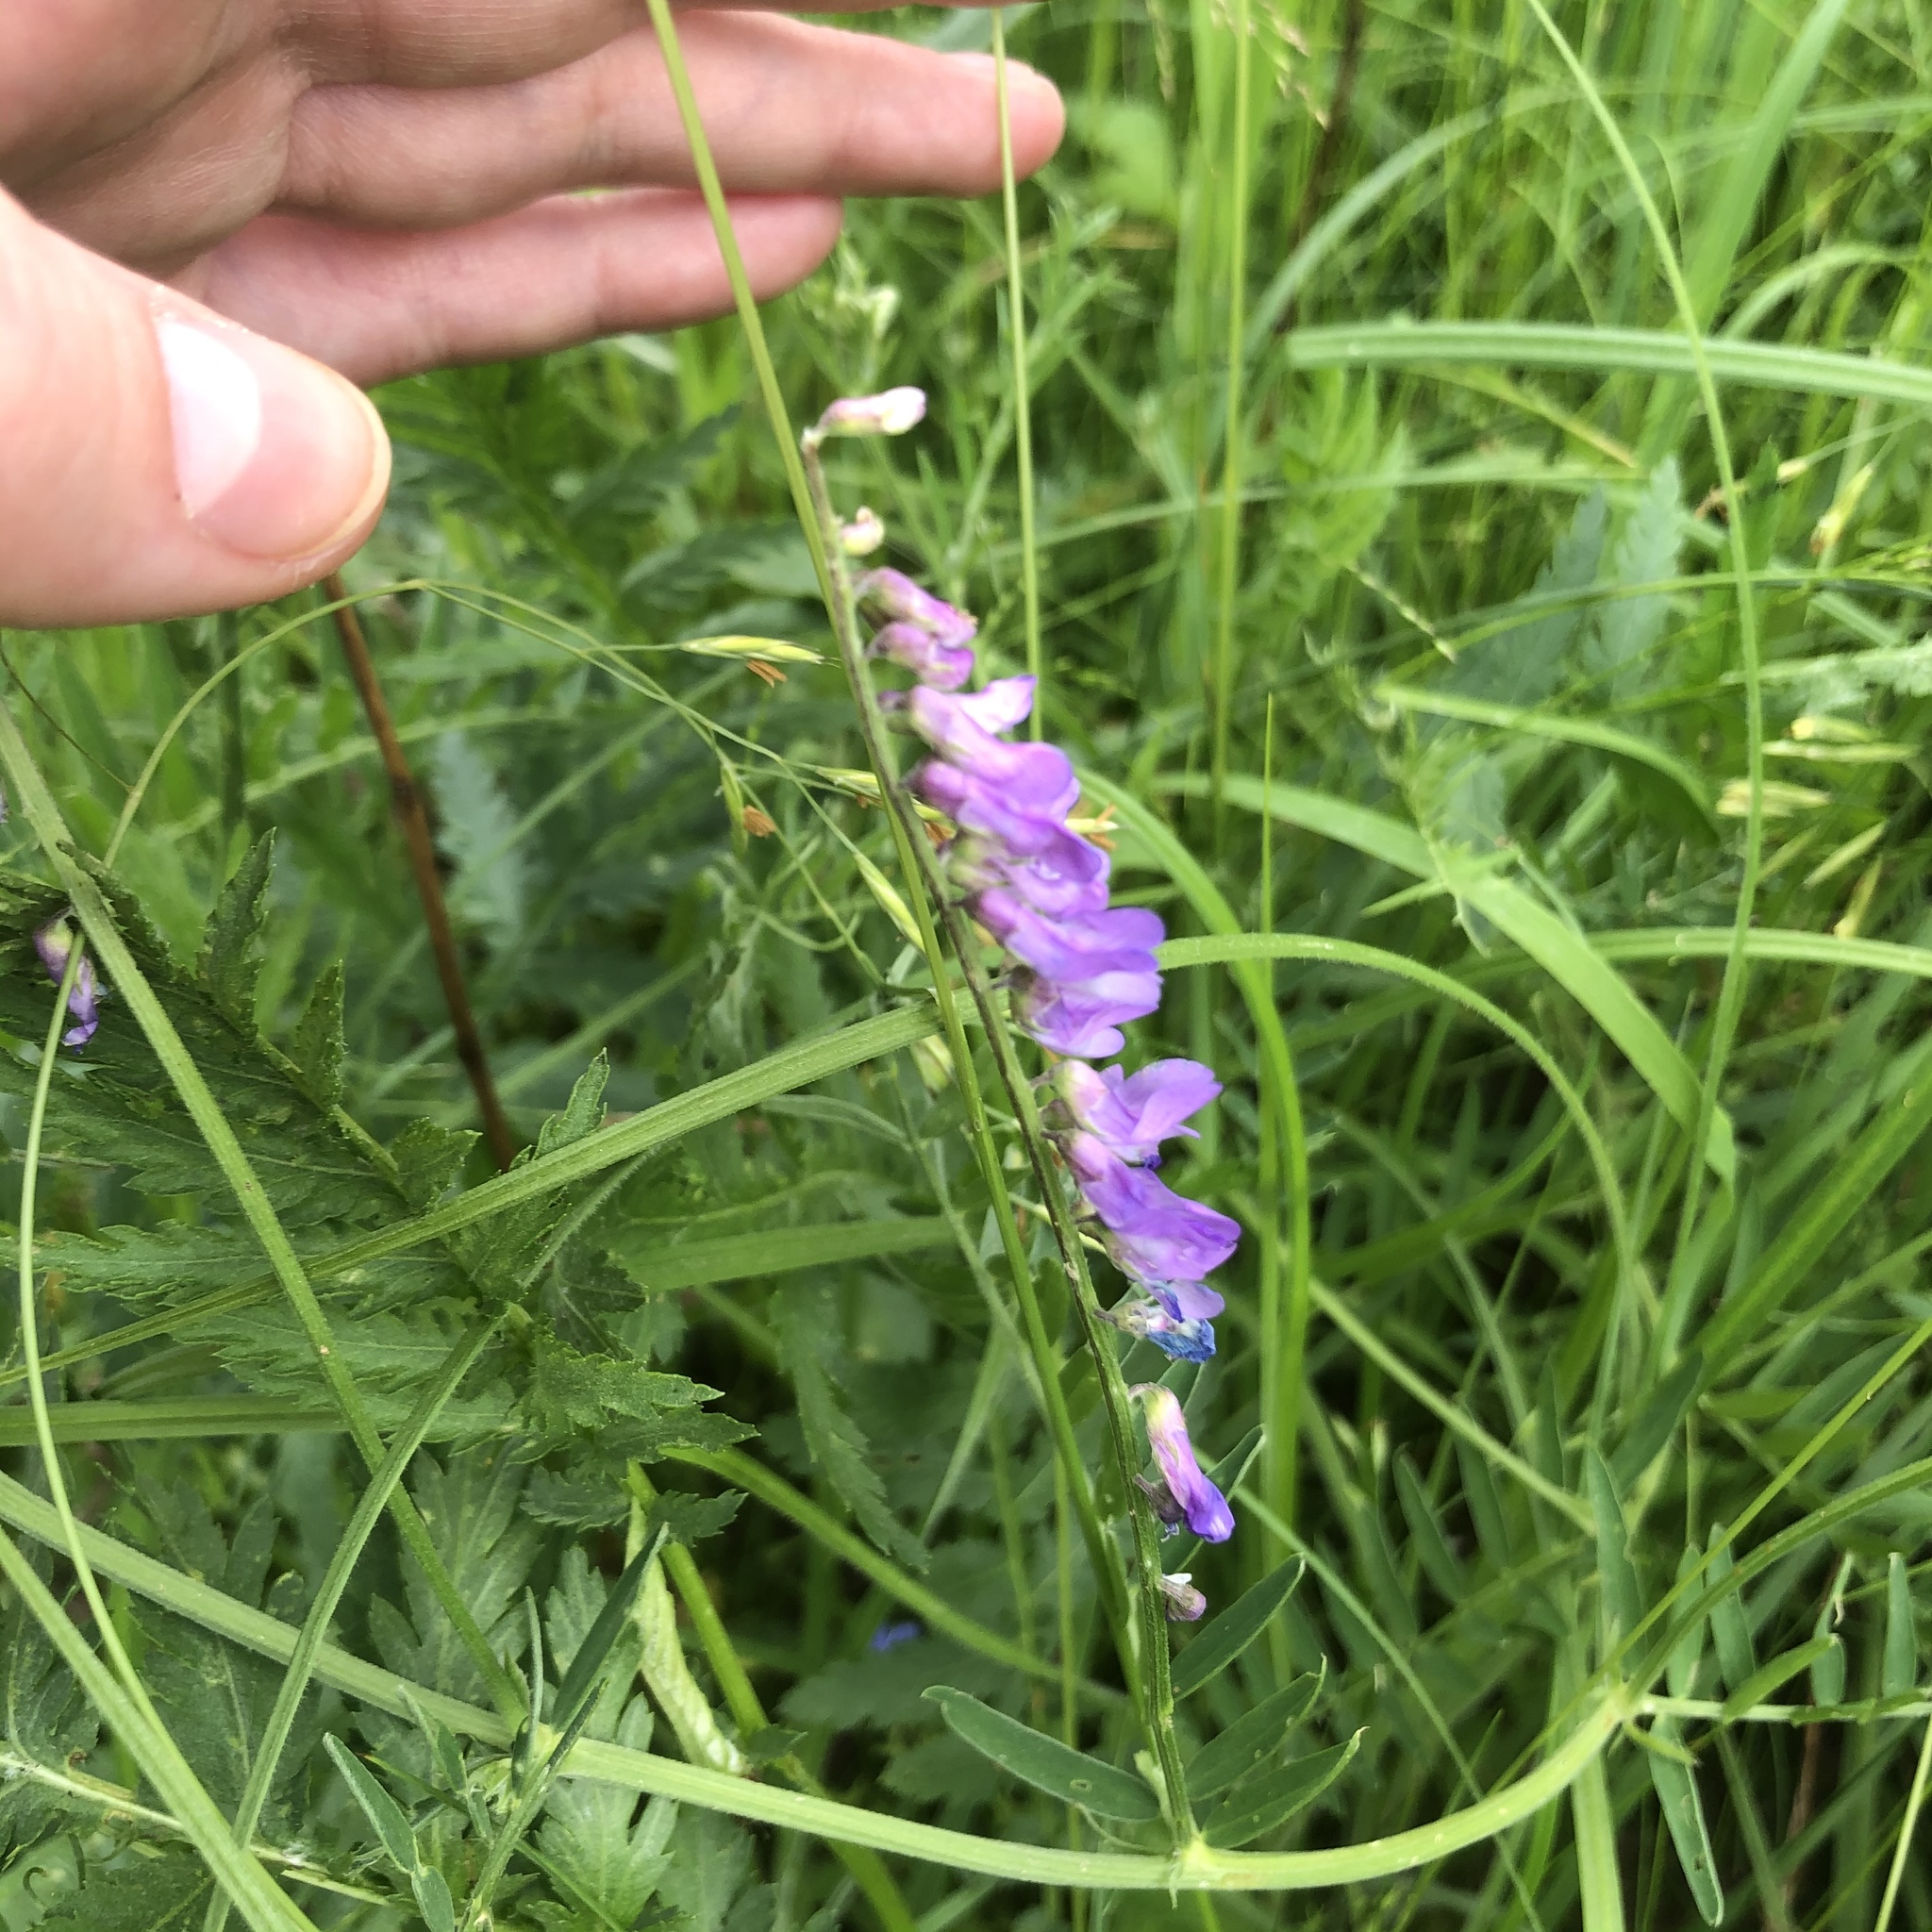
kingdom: Plantae
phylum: Tracheophyta
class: Magnoliopsida
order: Fabales
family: Fabaceae
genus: Vicia
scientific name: Vicia cracca
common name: Bird vetch
